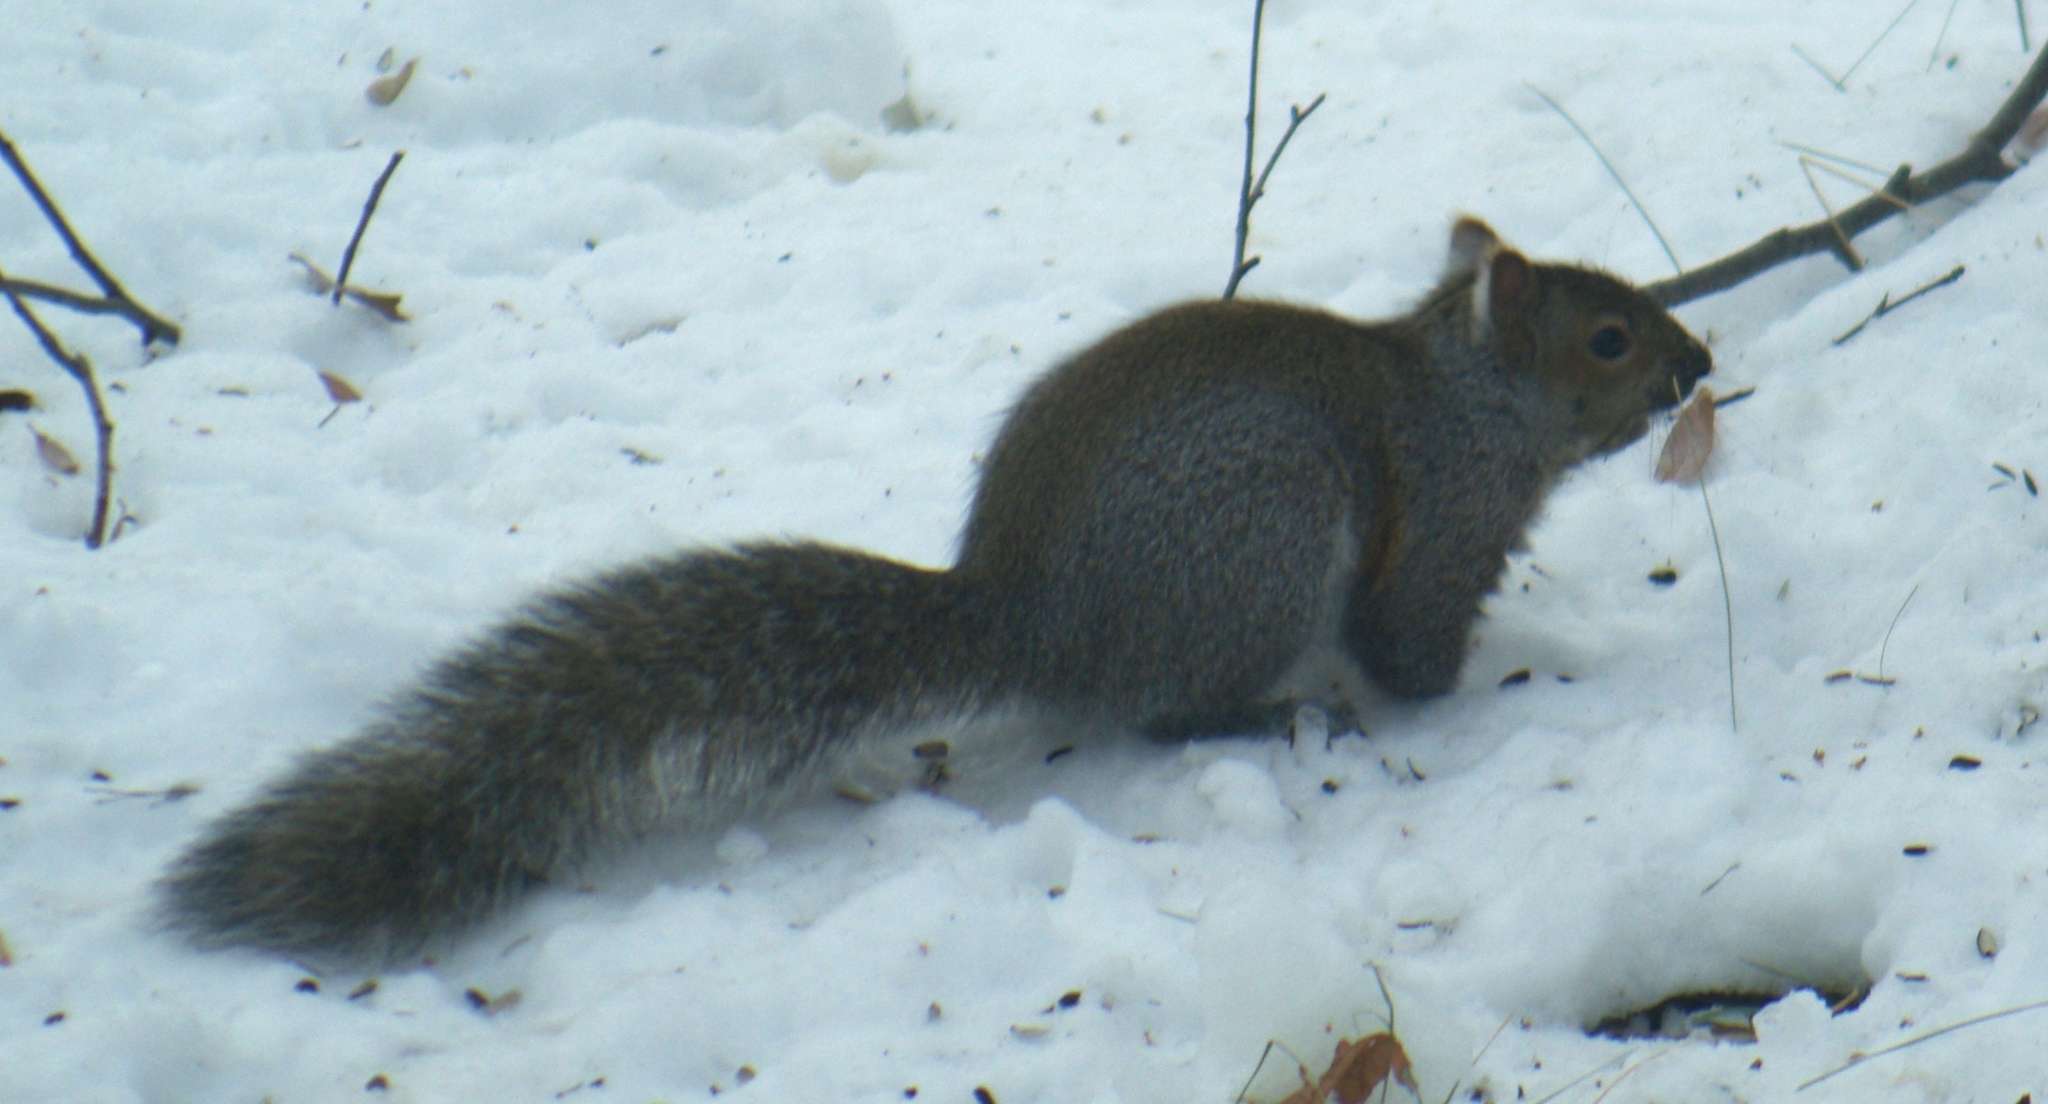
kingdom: Animalia
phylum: Chordata
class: Mammalia
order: Rodentia
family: Sciuridae
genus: Sciurus
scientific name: Sciurus carolinensis
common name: Eastern gray squirrel
